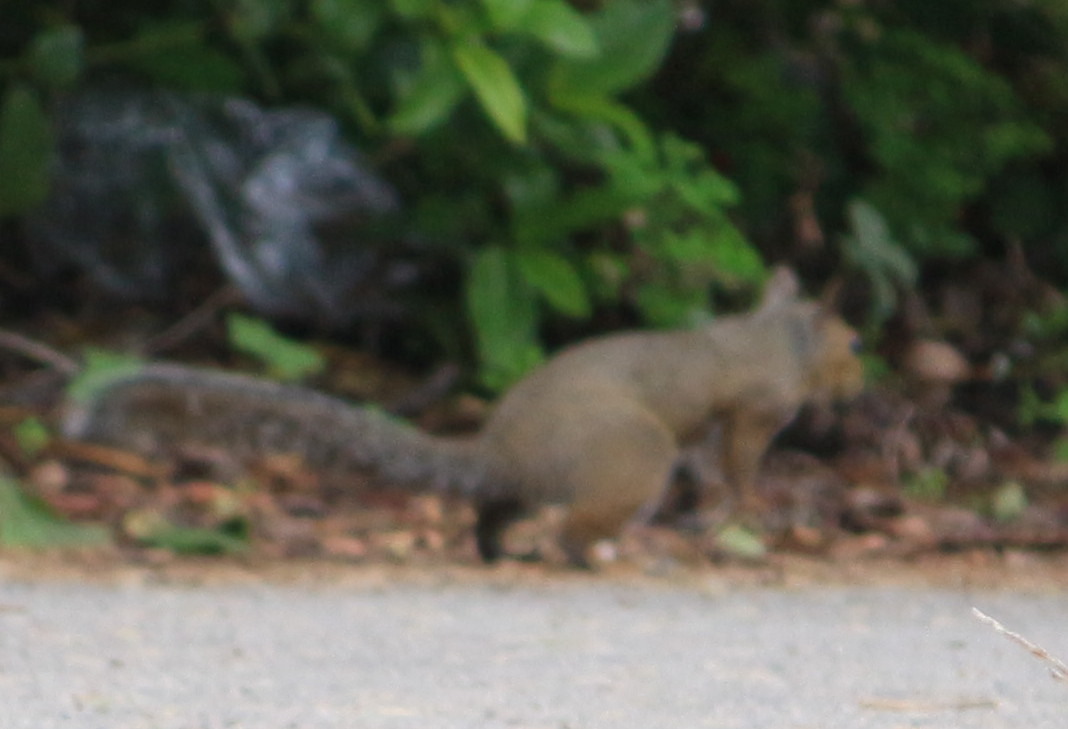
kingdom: Animalia
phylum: Chordata
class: Mammalia
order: Rodentia
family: Sciuridae
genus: Sciurus
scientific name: Sciurus carolinensis
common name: Eastern gray squirrel
